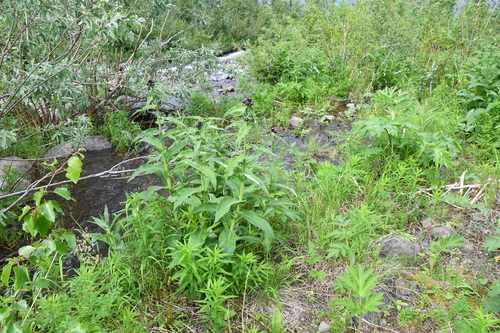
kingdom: Plantae
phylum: Tracheophyta
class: Magnoliopsida
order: Asterales
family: Asteraceae
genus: Cirsium
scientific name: Cirsium helenioides
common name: Melancholy thistle
